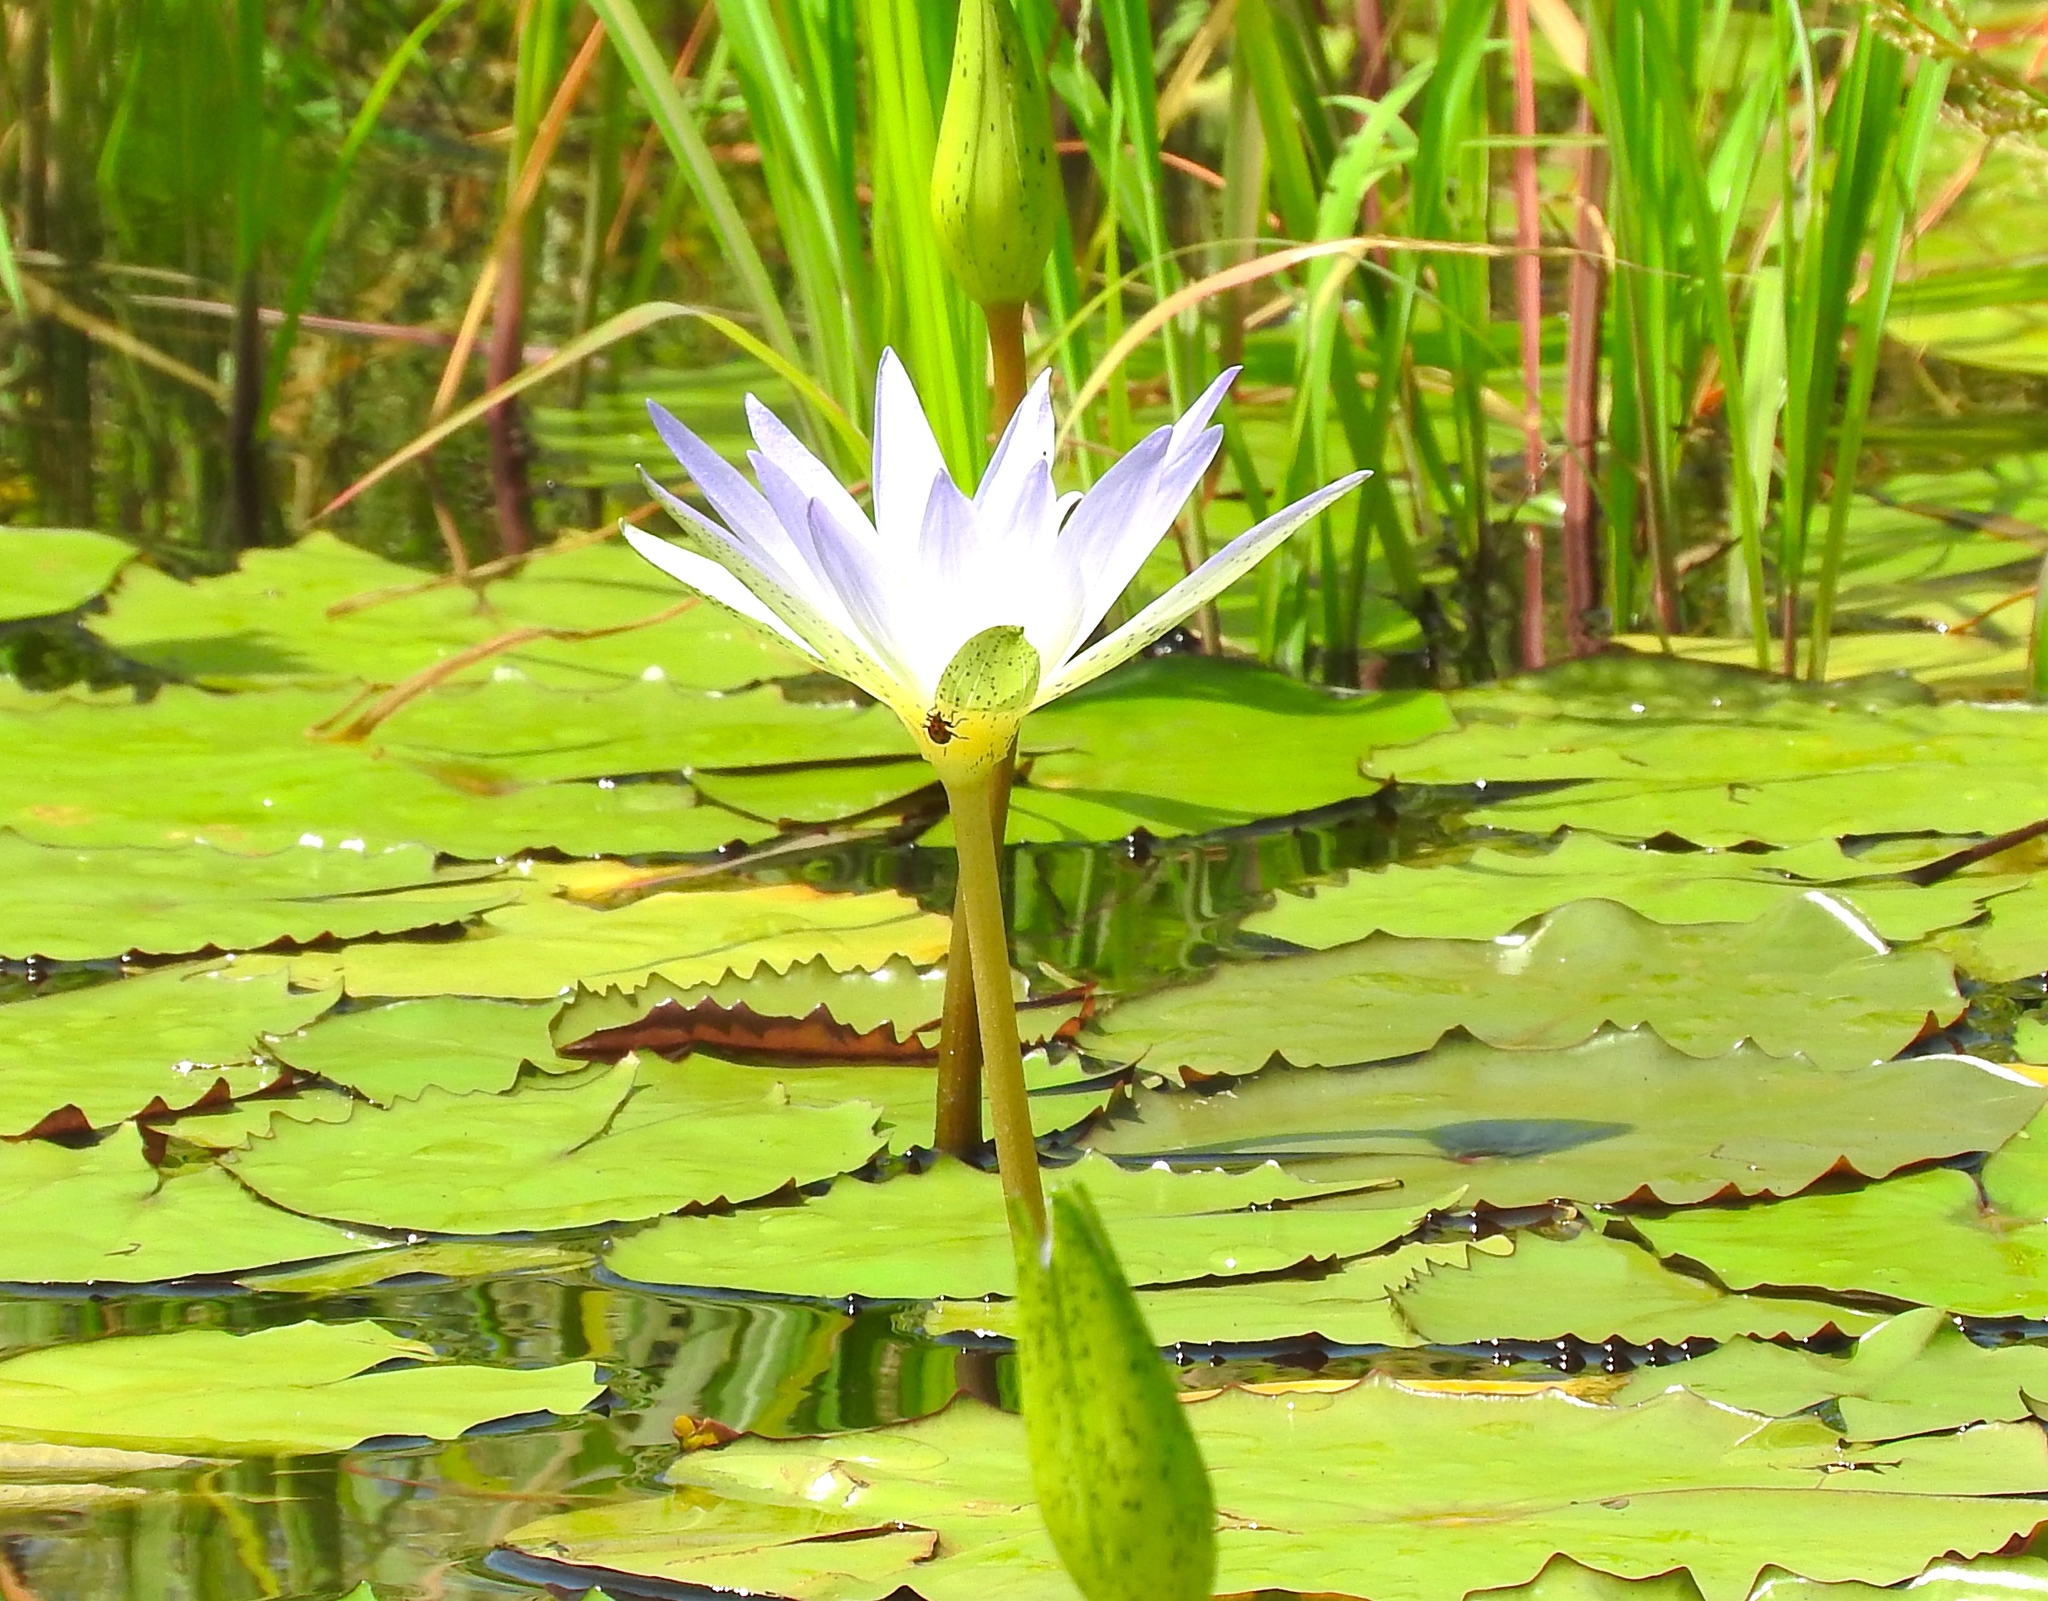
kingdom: Plantae
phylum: Tracheophyta
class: Magnoliopsida
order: Nymphaeales
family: Nymphaeaceae
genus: Nymphaea
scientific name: Nymphaea elegans
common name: Blue water-lily
